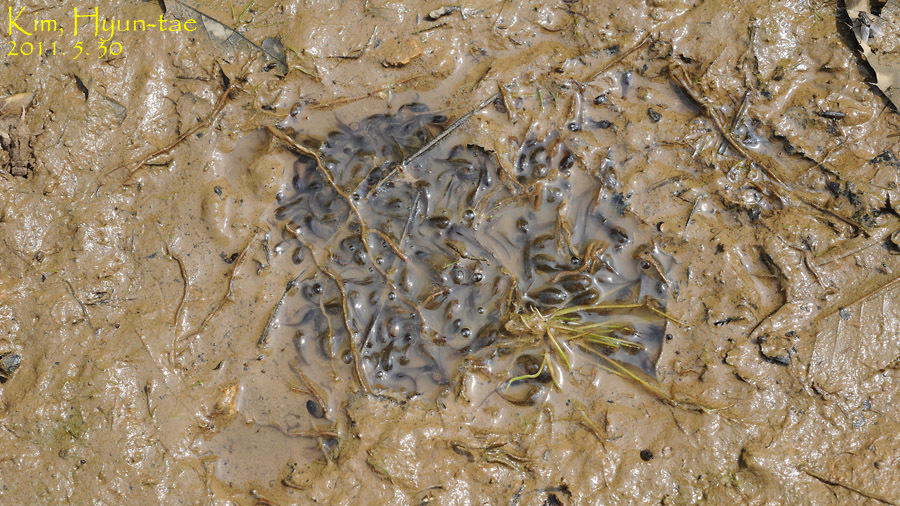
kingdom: Animalia
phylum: Chordata
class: Amphibia
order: Anura
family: Ranidae
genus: Rana
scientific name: Rana uenoi
